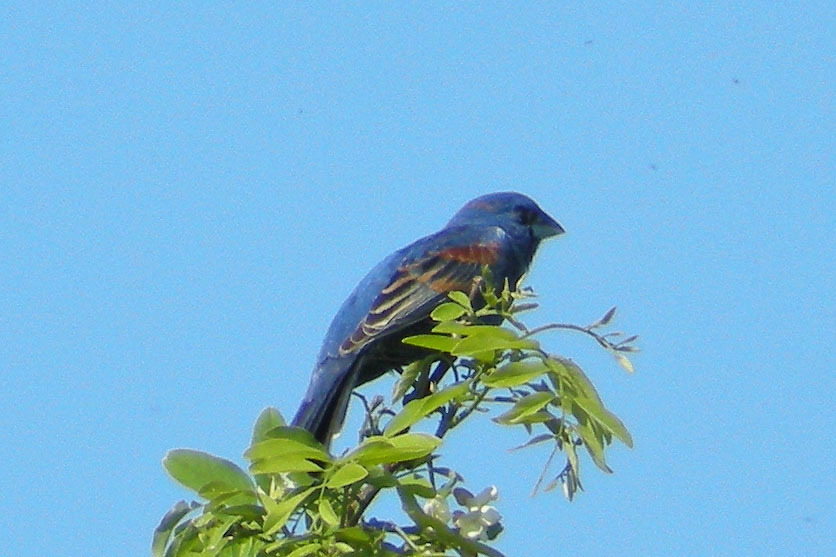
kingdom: Animalia
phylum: Chordata
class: Aves
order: Passeriformes
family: Cardinalidae
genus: Passerina
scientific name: Passerina caerulea
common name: Blue grosbeak
